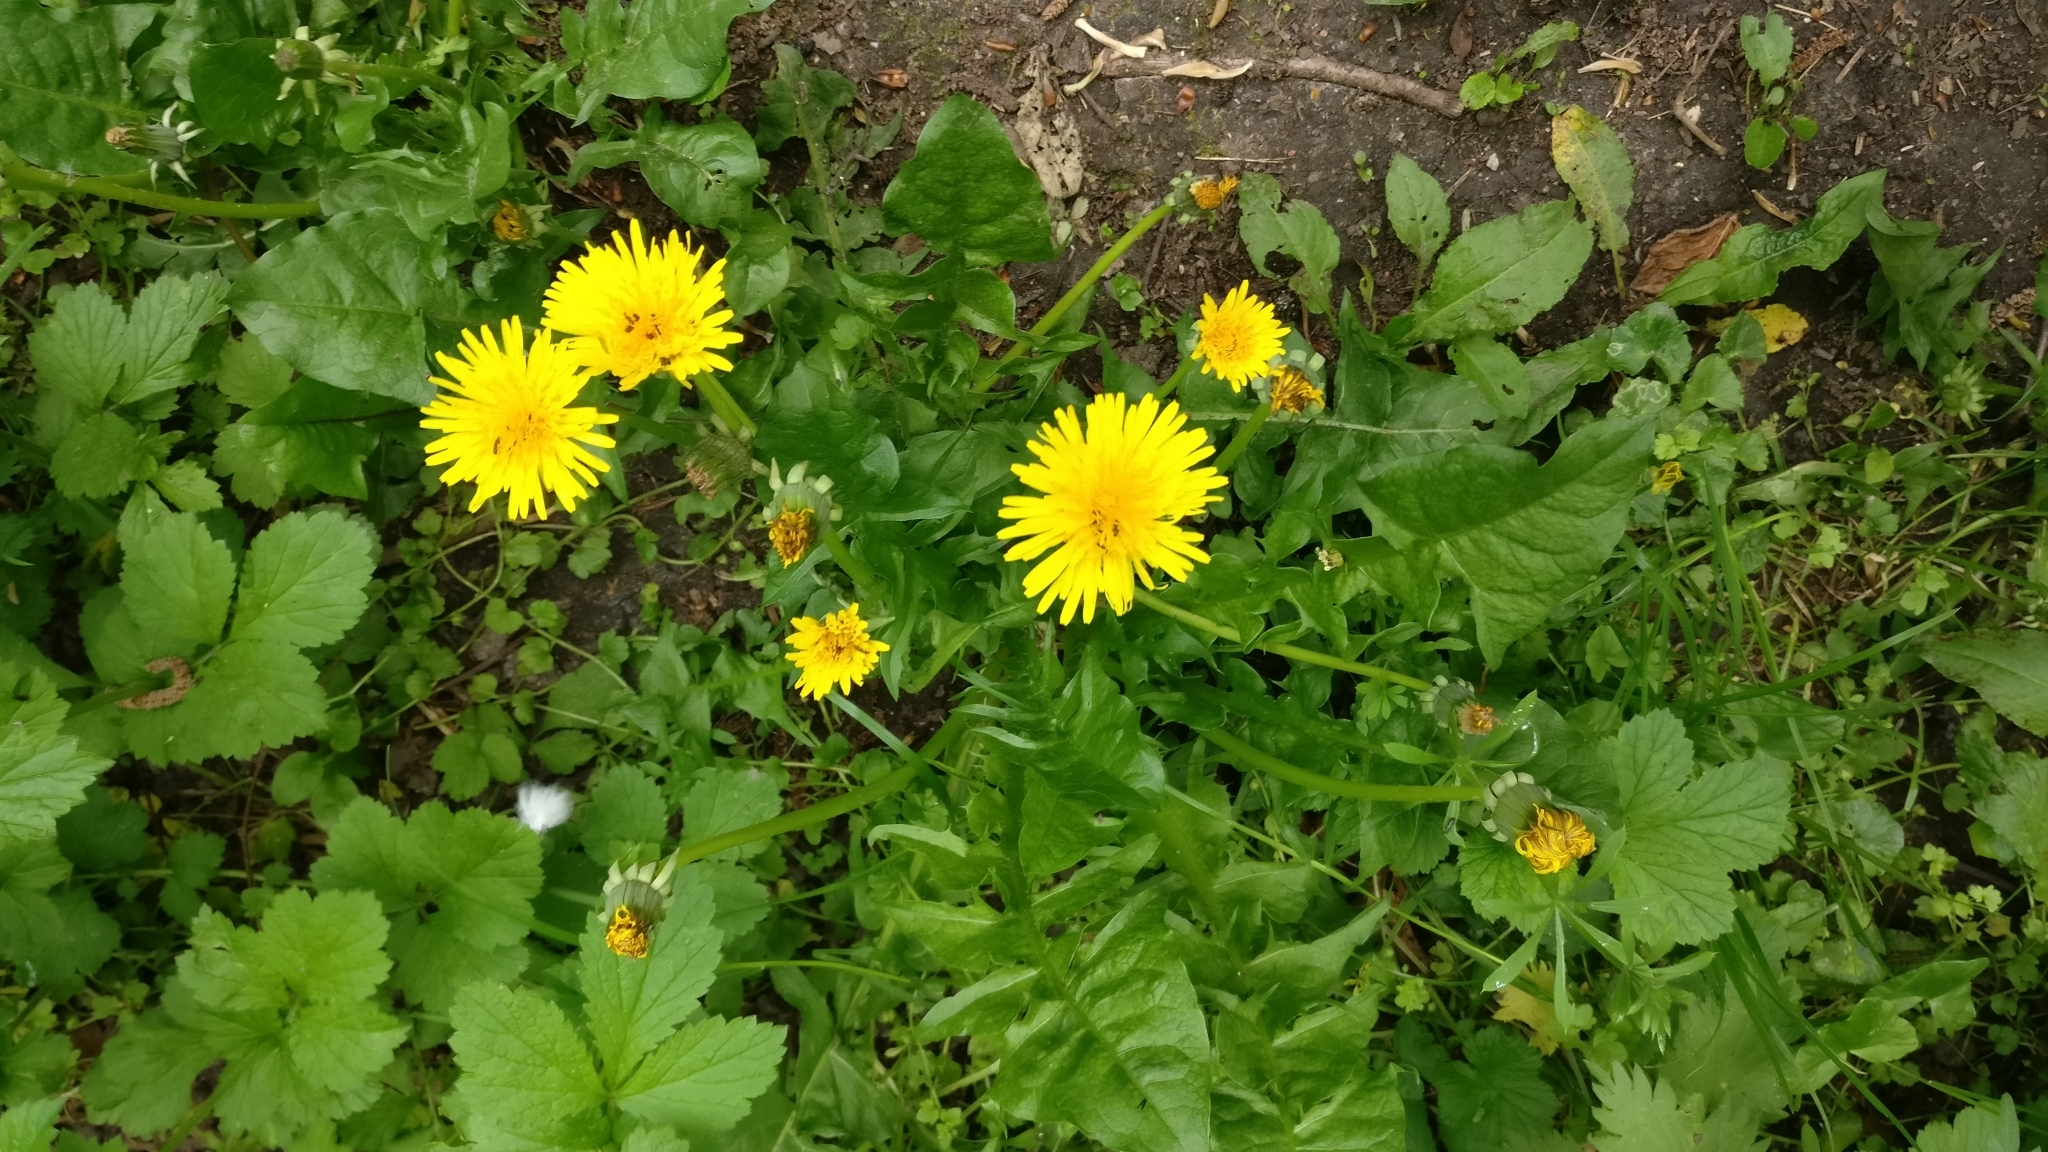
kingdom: Plantae
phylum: Tracheophyta
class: Magnoliopsida
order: Asterales
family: Asteraceae
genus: Taraxacum
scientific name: Taraxacum officinale
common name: Common dandelion
